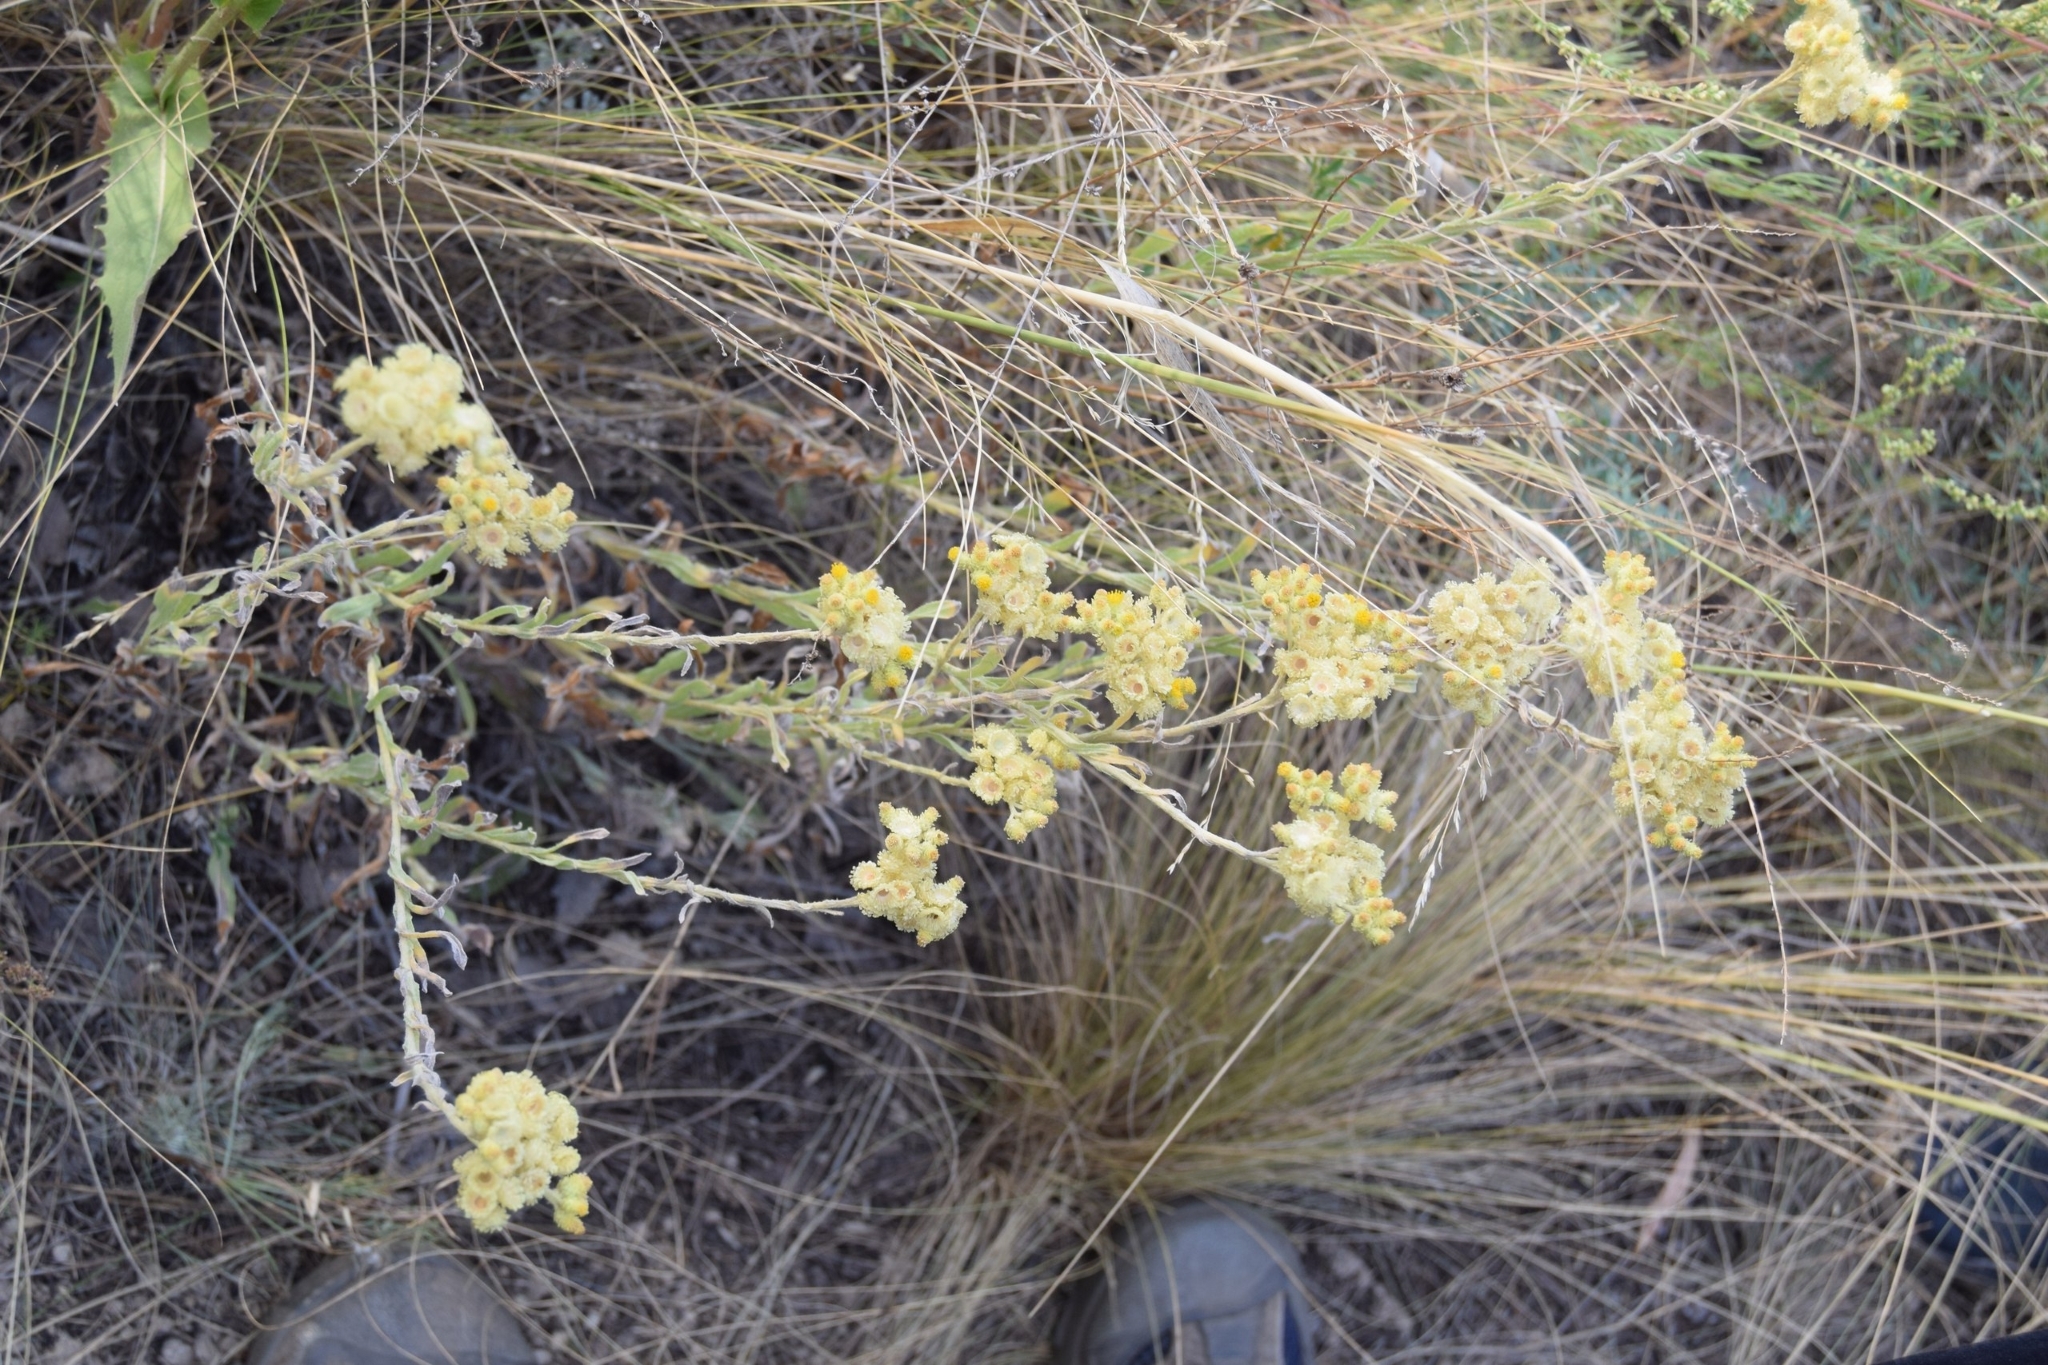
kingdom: Plantae
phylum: Tracheophyta
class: Magnoliopsida
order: Asterales
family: Asteraceae
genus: Helichrysum
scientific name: Helichrysum arenarium
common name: Strawflower
